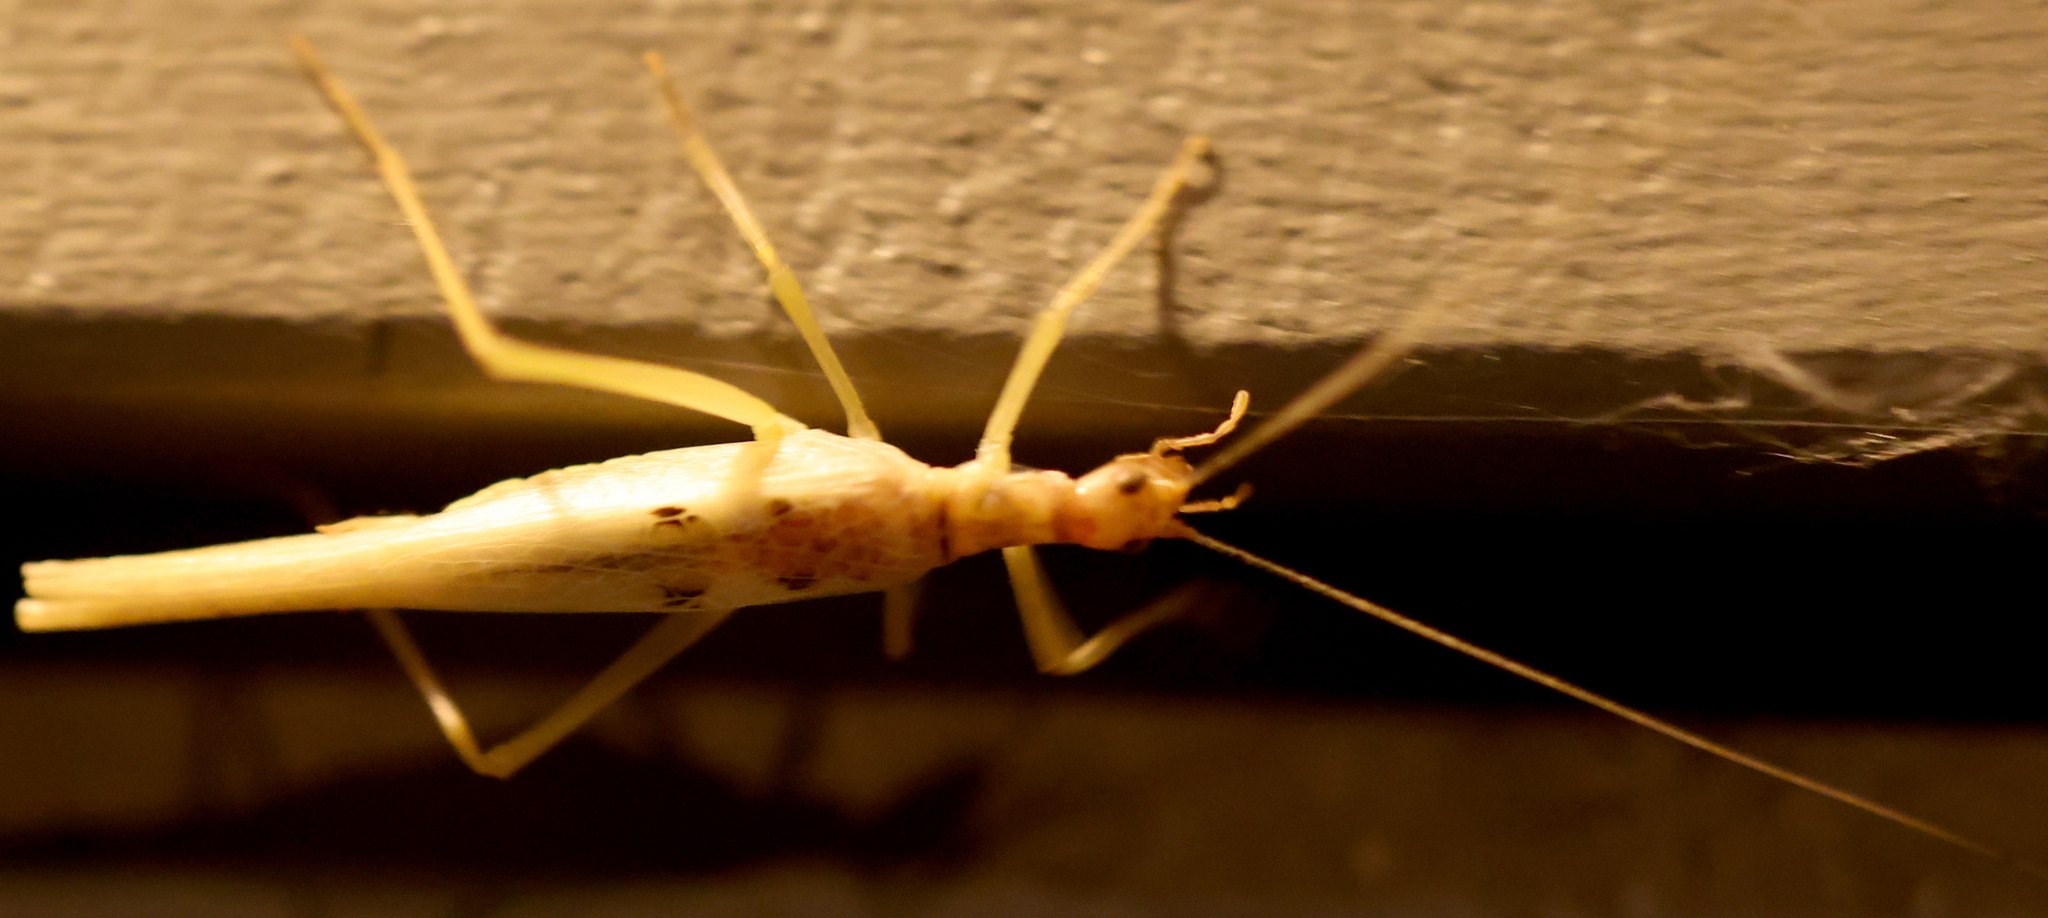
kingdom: Animalia
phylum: Arthropoda
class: Insecta
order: Orthoptera
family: Gryllidae
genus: Neoxabea
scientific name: Neoxabea bipunctata
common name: Two-spotted tree cricket
